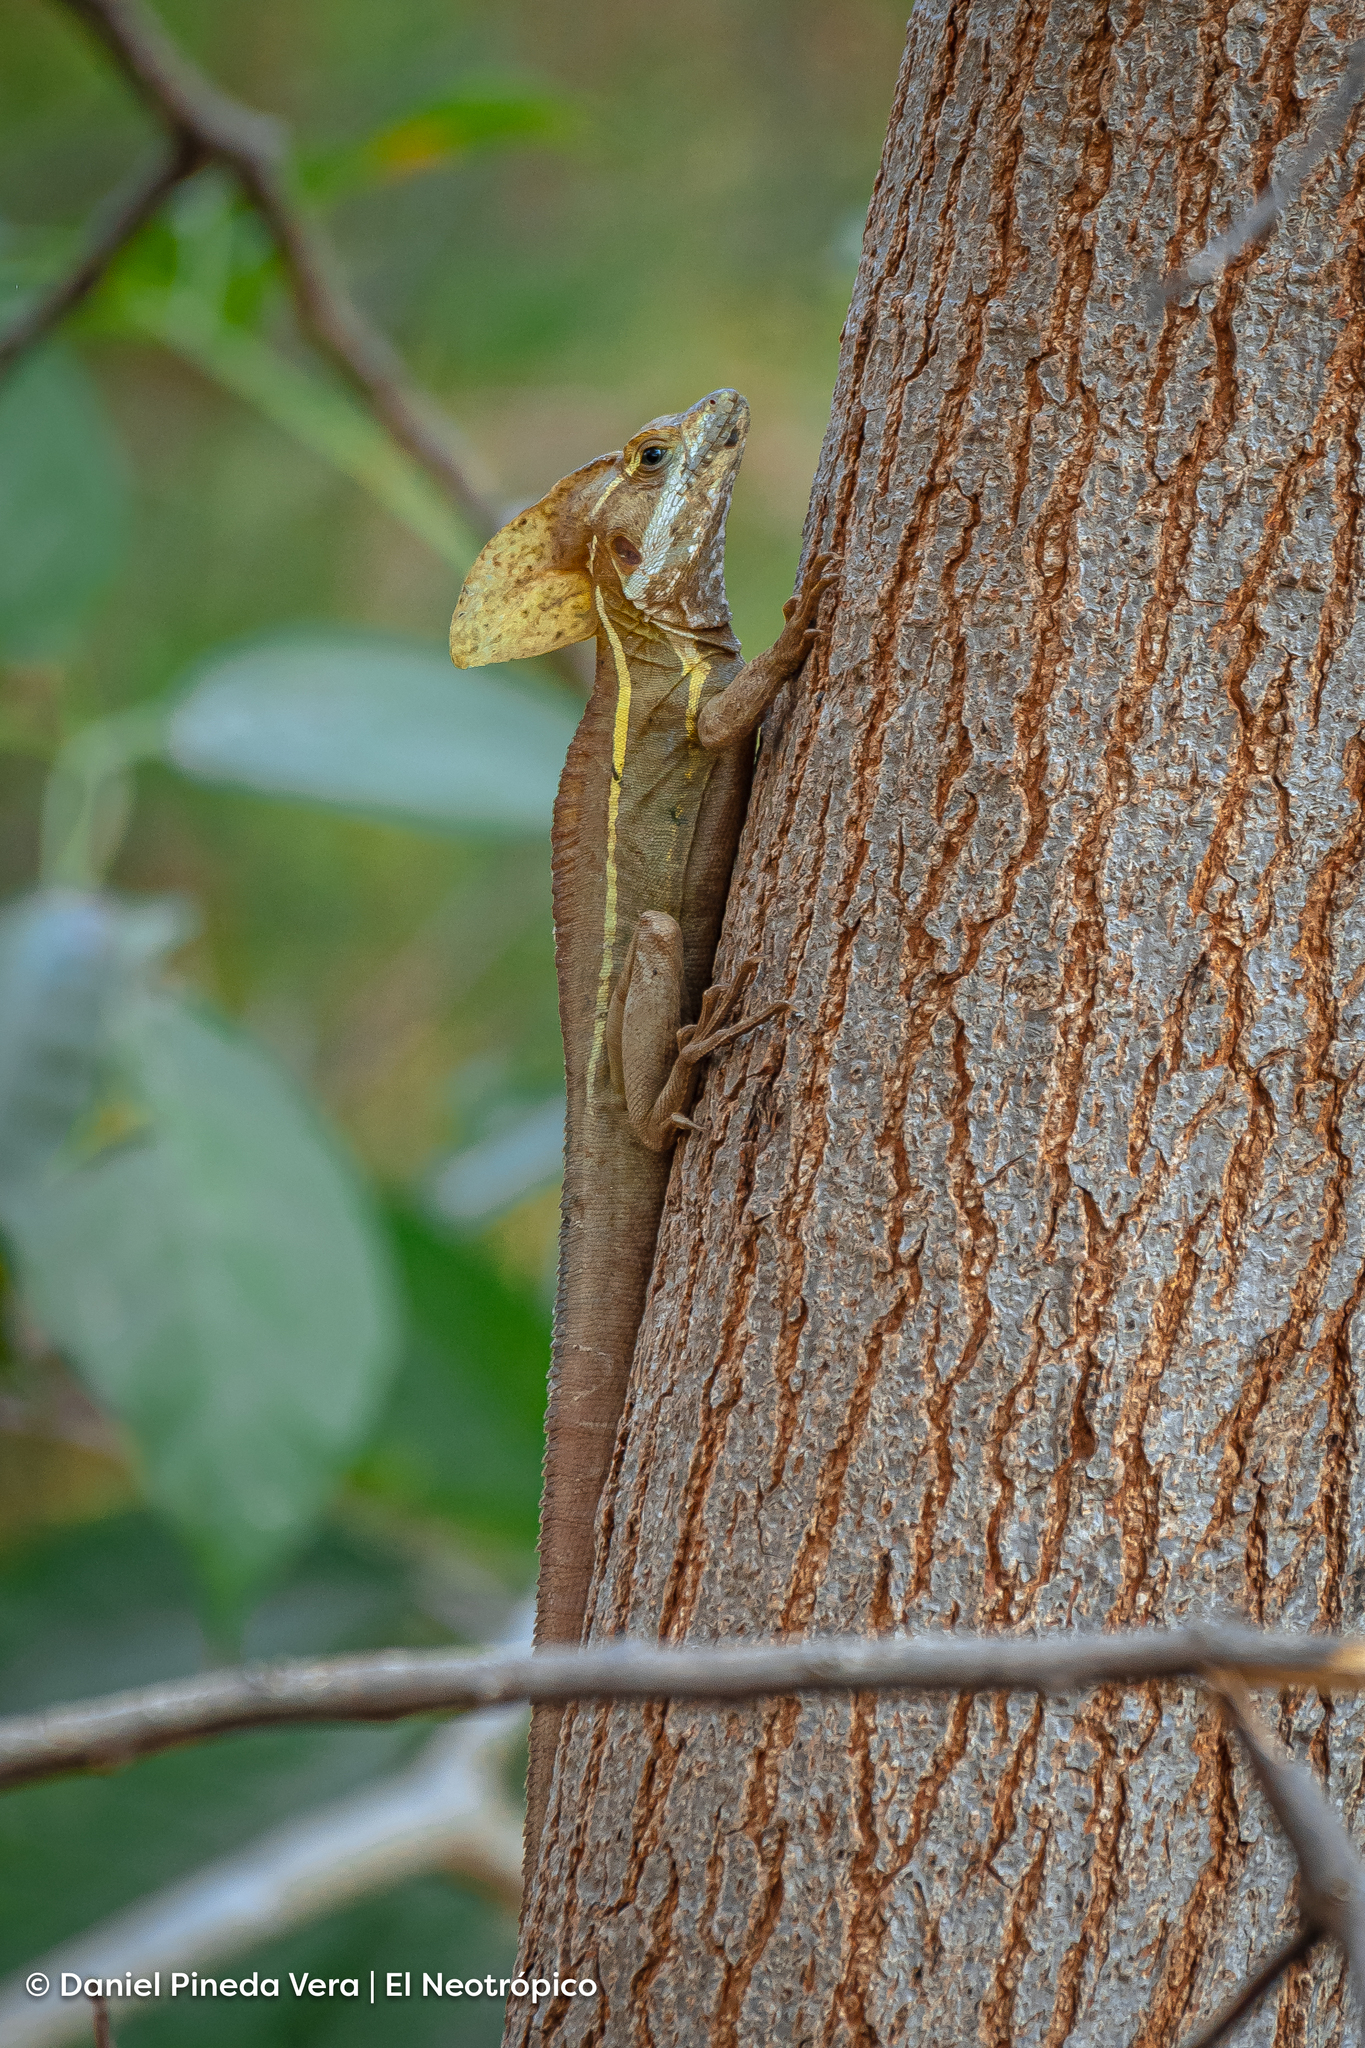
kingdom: Animalia
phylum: Chordata
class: Squamata
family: Corytophanidae
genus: Basiliscus
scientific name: Basiliscus vittatus
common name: Brown basilisk
